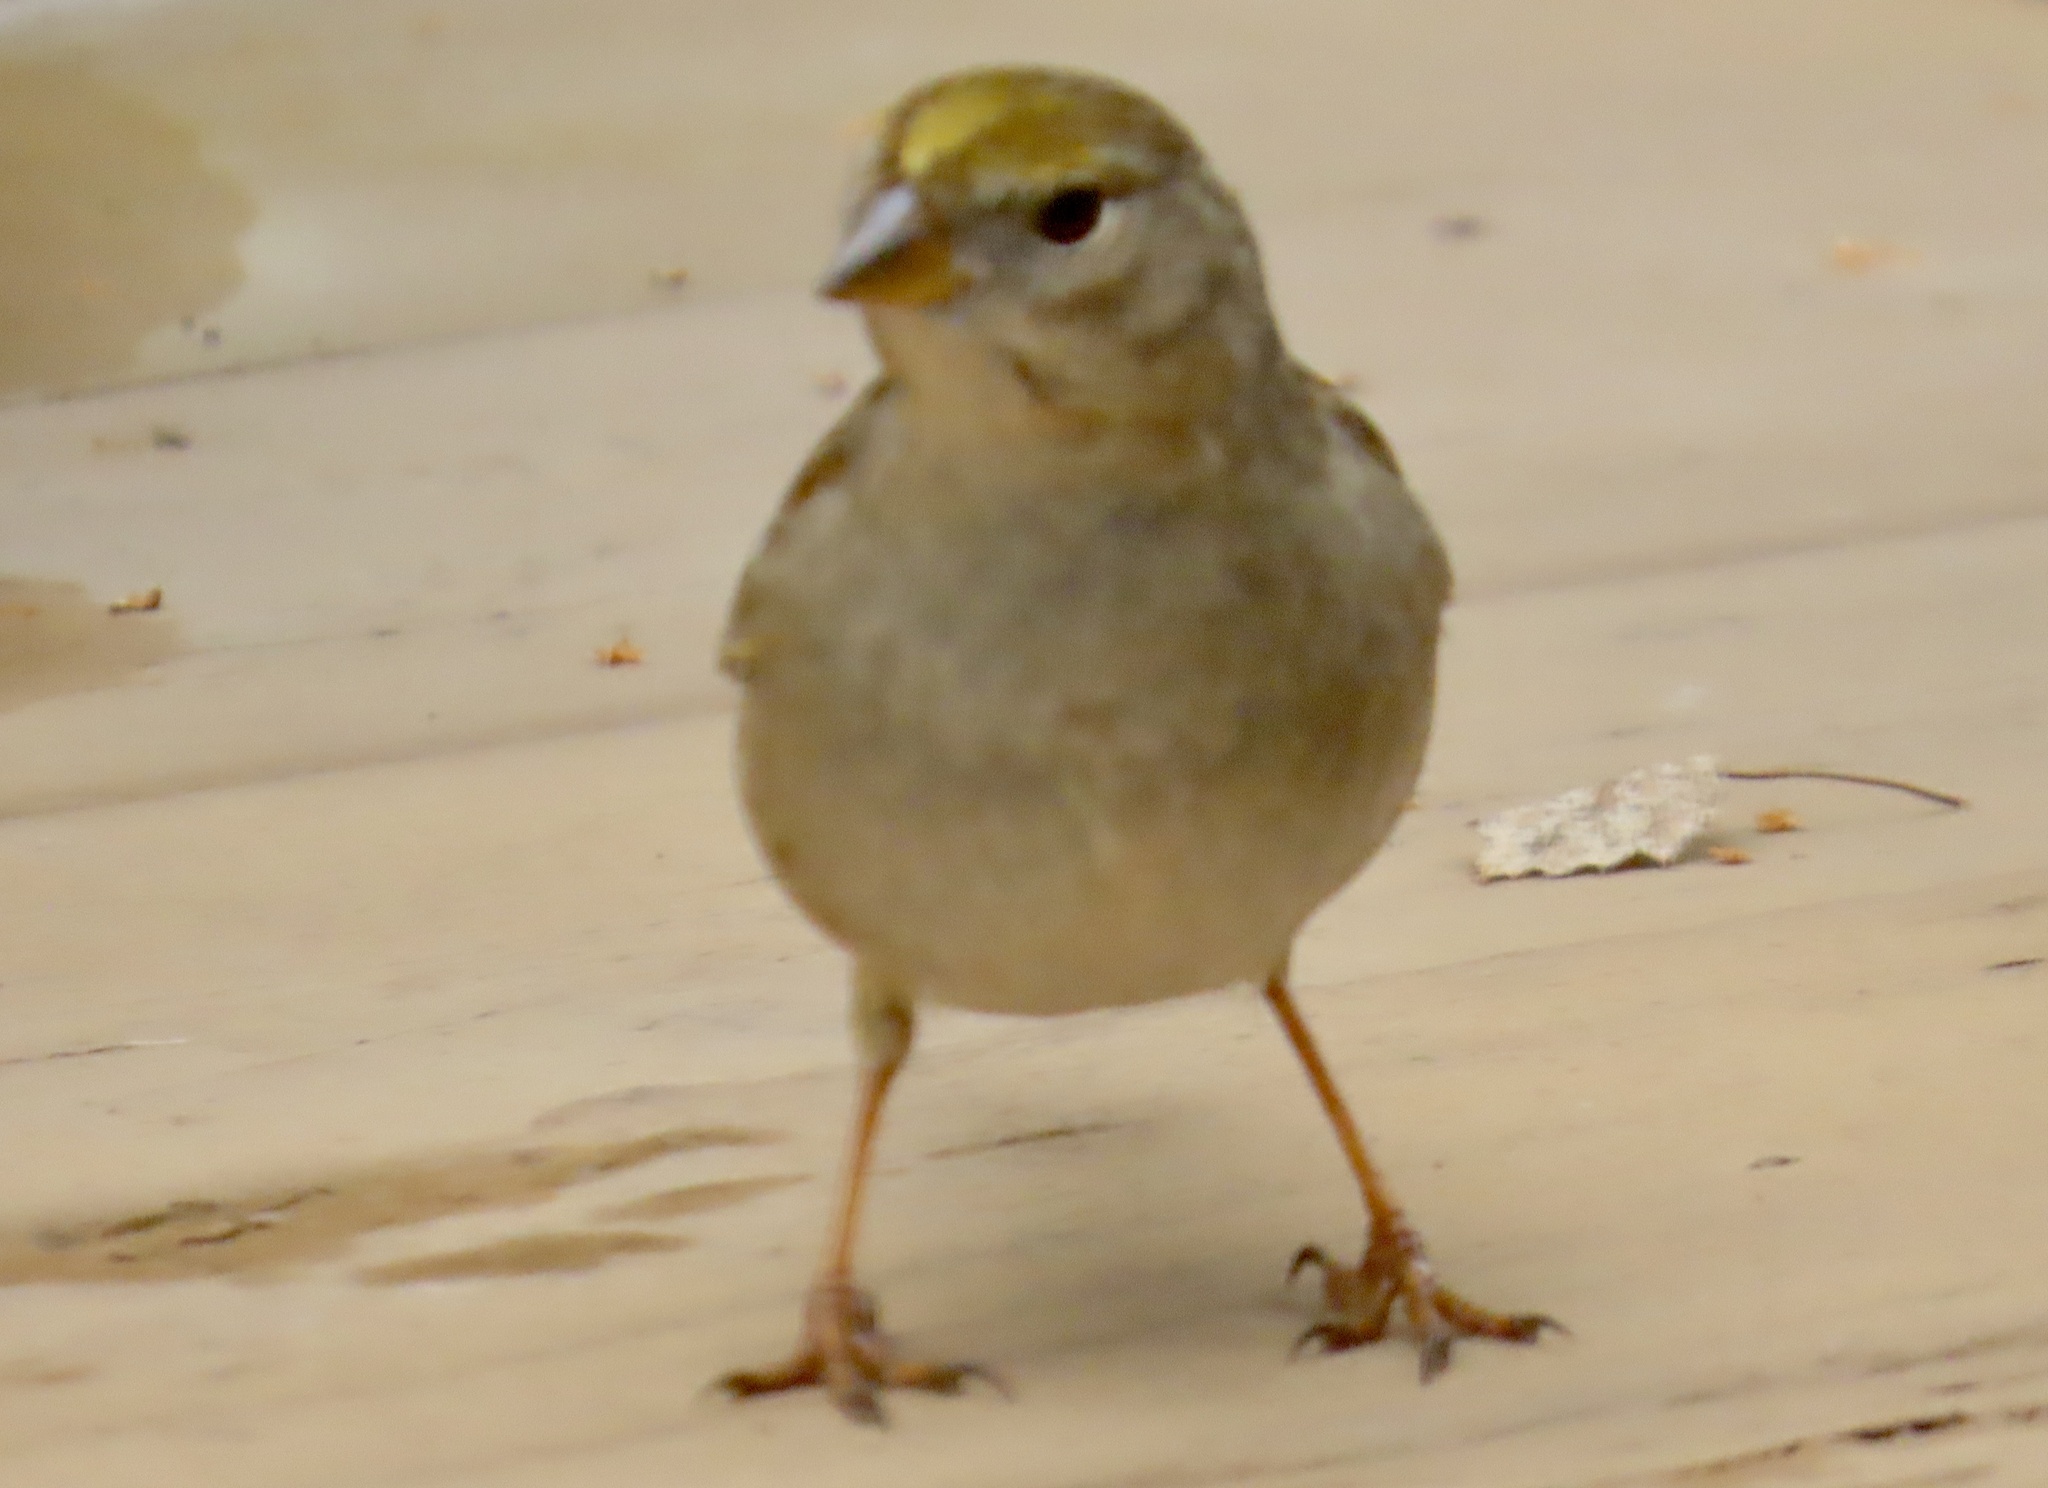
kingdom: Animalia
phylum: Chordata
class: Aves
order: Passeriformes
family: Passerellidae
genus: Zonotrichia
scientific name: Zonotrichia atricapilla
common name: Golden-crowned sparrow
